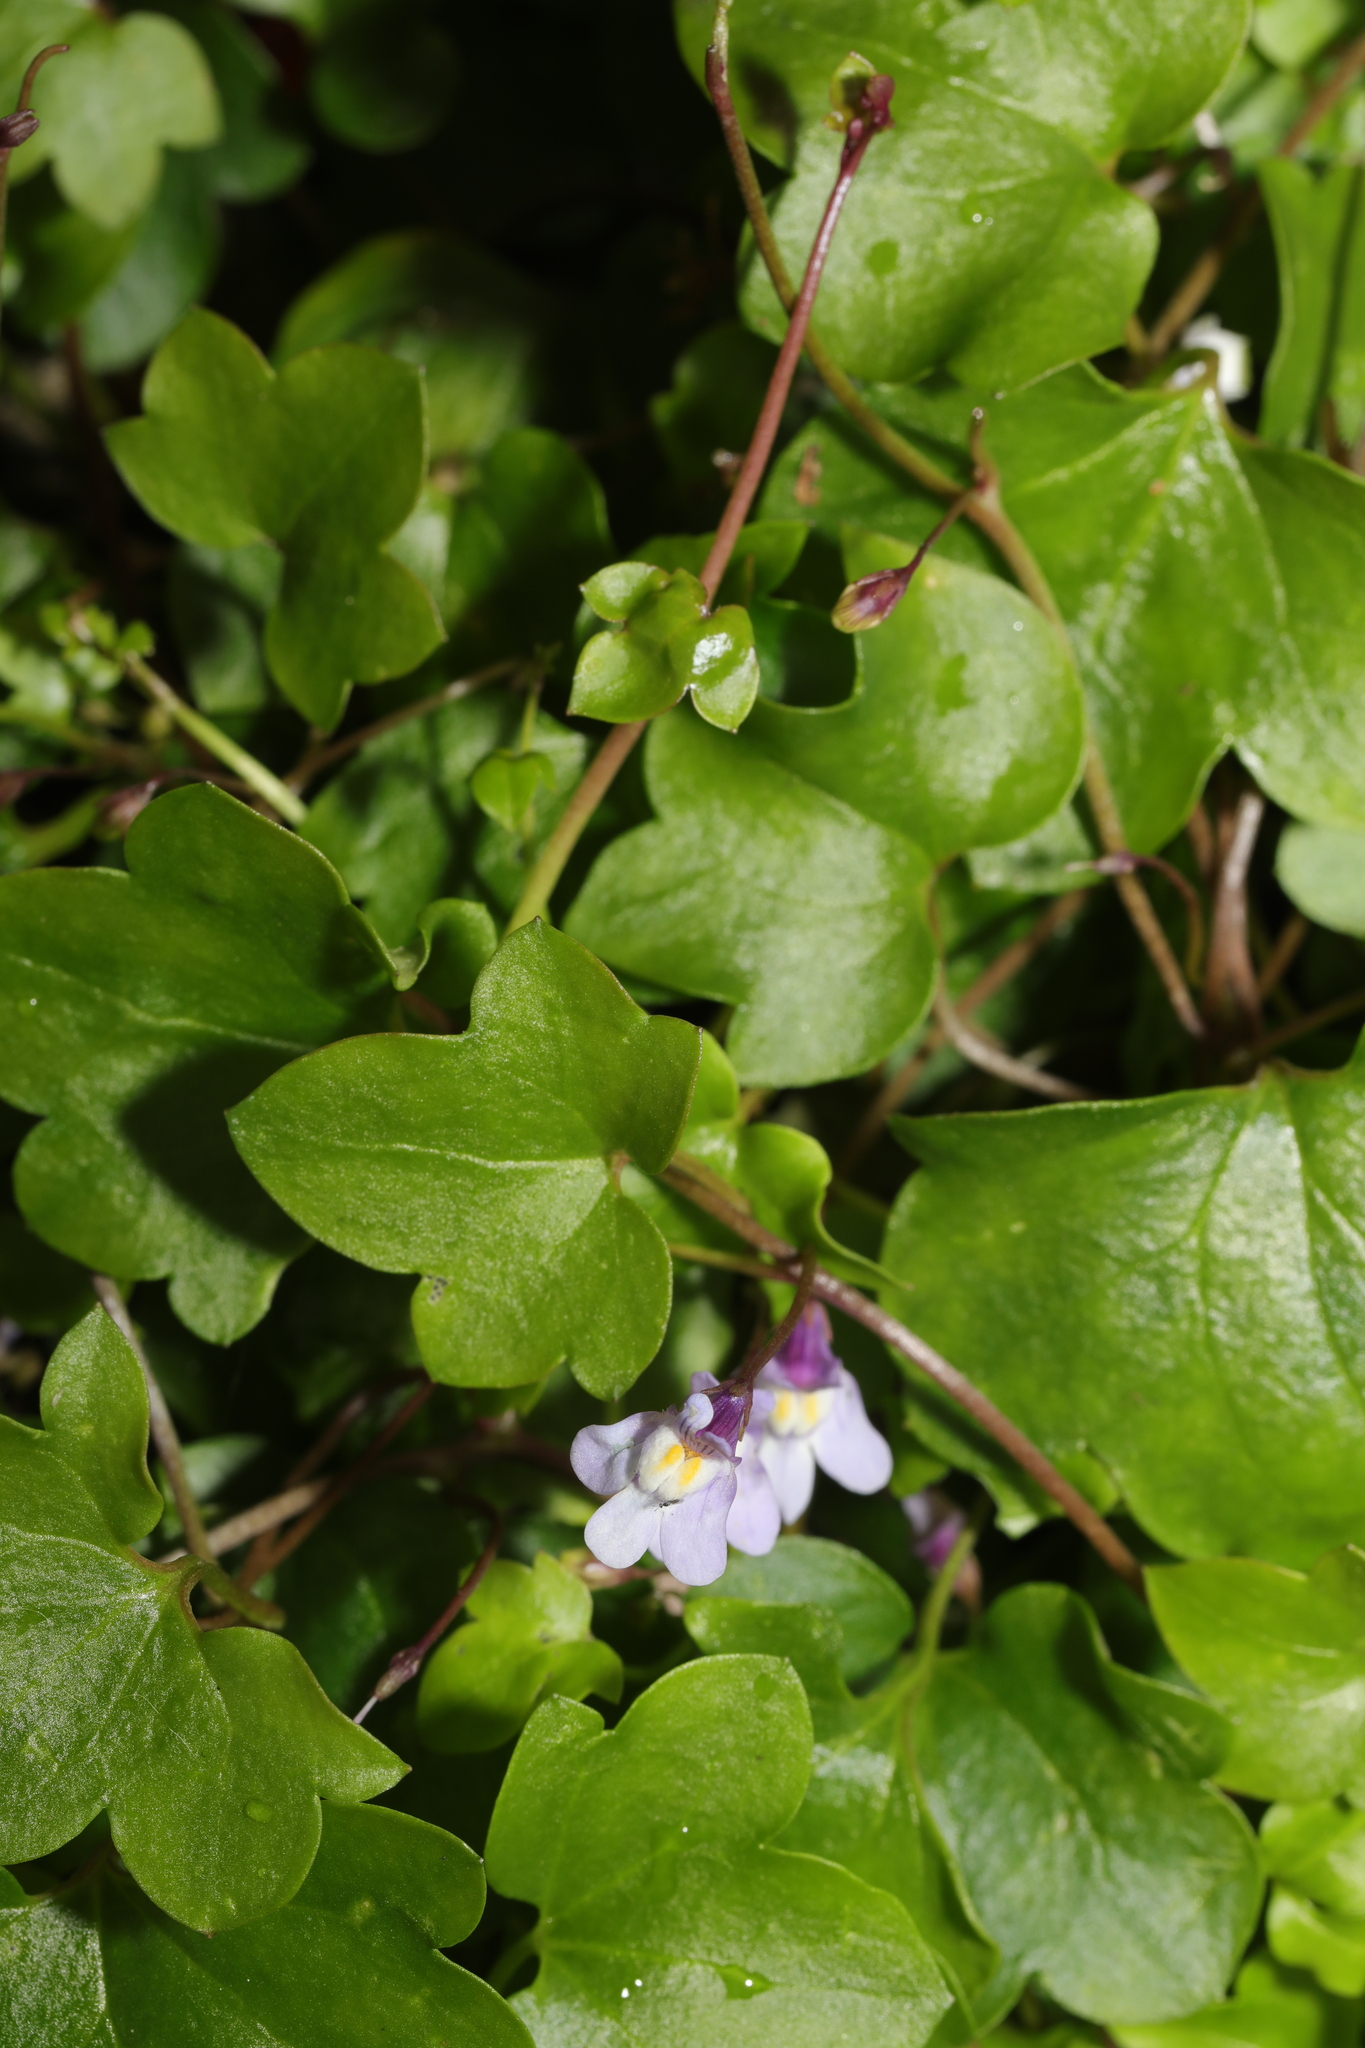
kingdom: Plantae
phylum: Tracheophyta
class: Magnoliopsida
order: Lamiales
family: Plantaginaceae
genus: Cymbalaria
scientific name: Cymbalaria muralis
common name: Ivy-leaved toadflax
